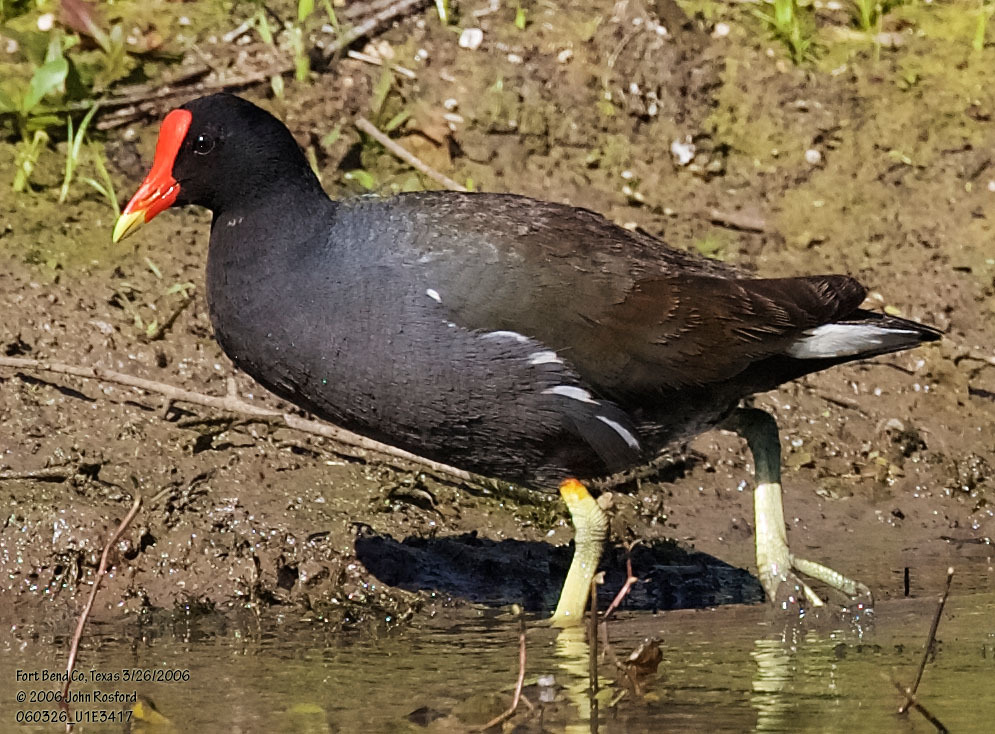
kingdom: Animalia
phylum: Chordata
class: Aves
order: Gruiformes
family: Rallidae
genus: Gallinula
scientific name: Gallinula chloropus
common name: Common moorhen
